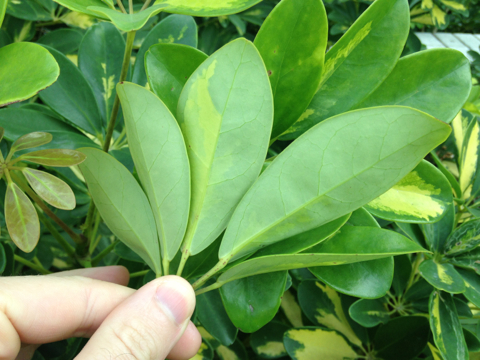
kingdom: Plantae
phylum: Tracheophyta
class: Magnoliopsida
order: Apiales
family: Araliaceae
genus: Heptapleurum
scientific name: Heptapleurum arboricola
